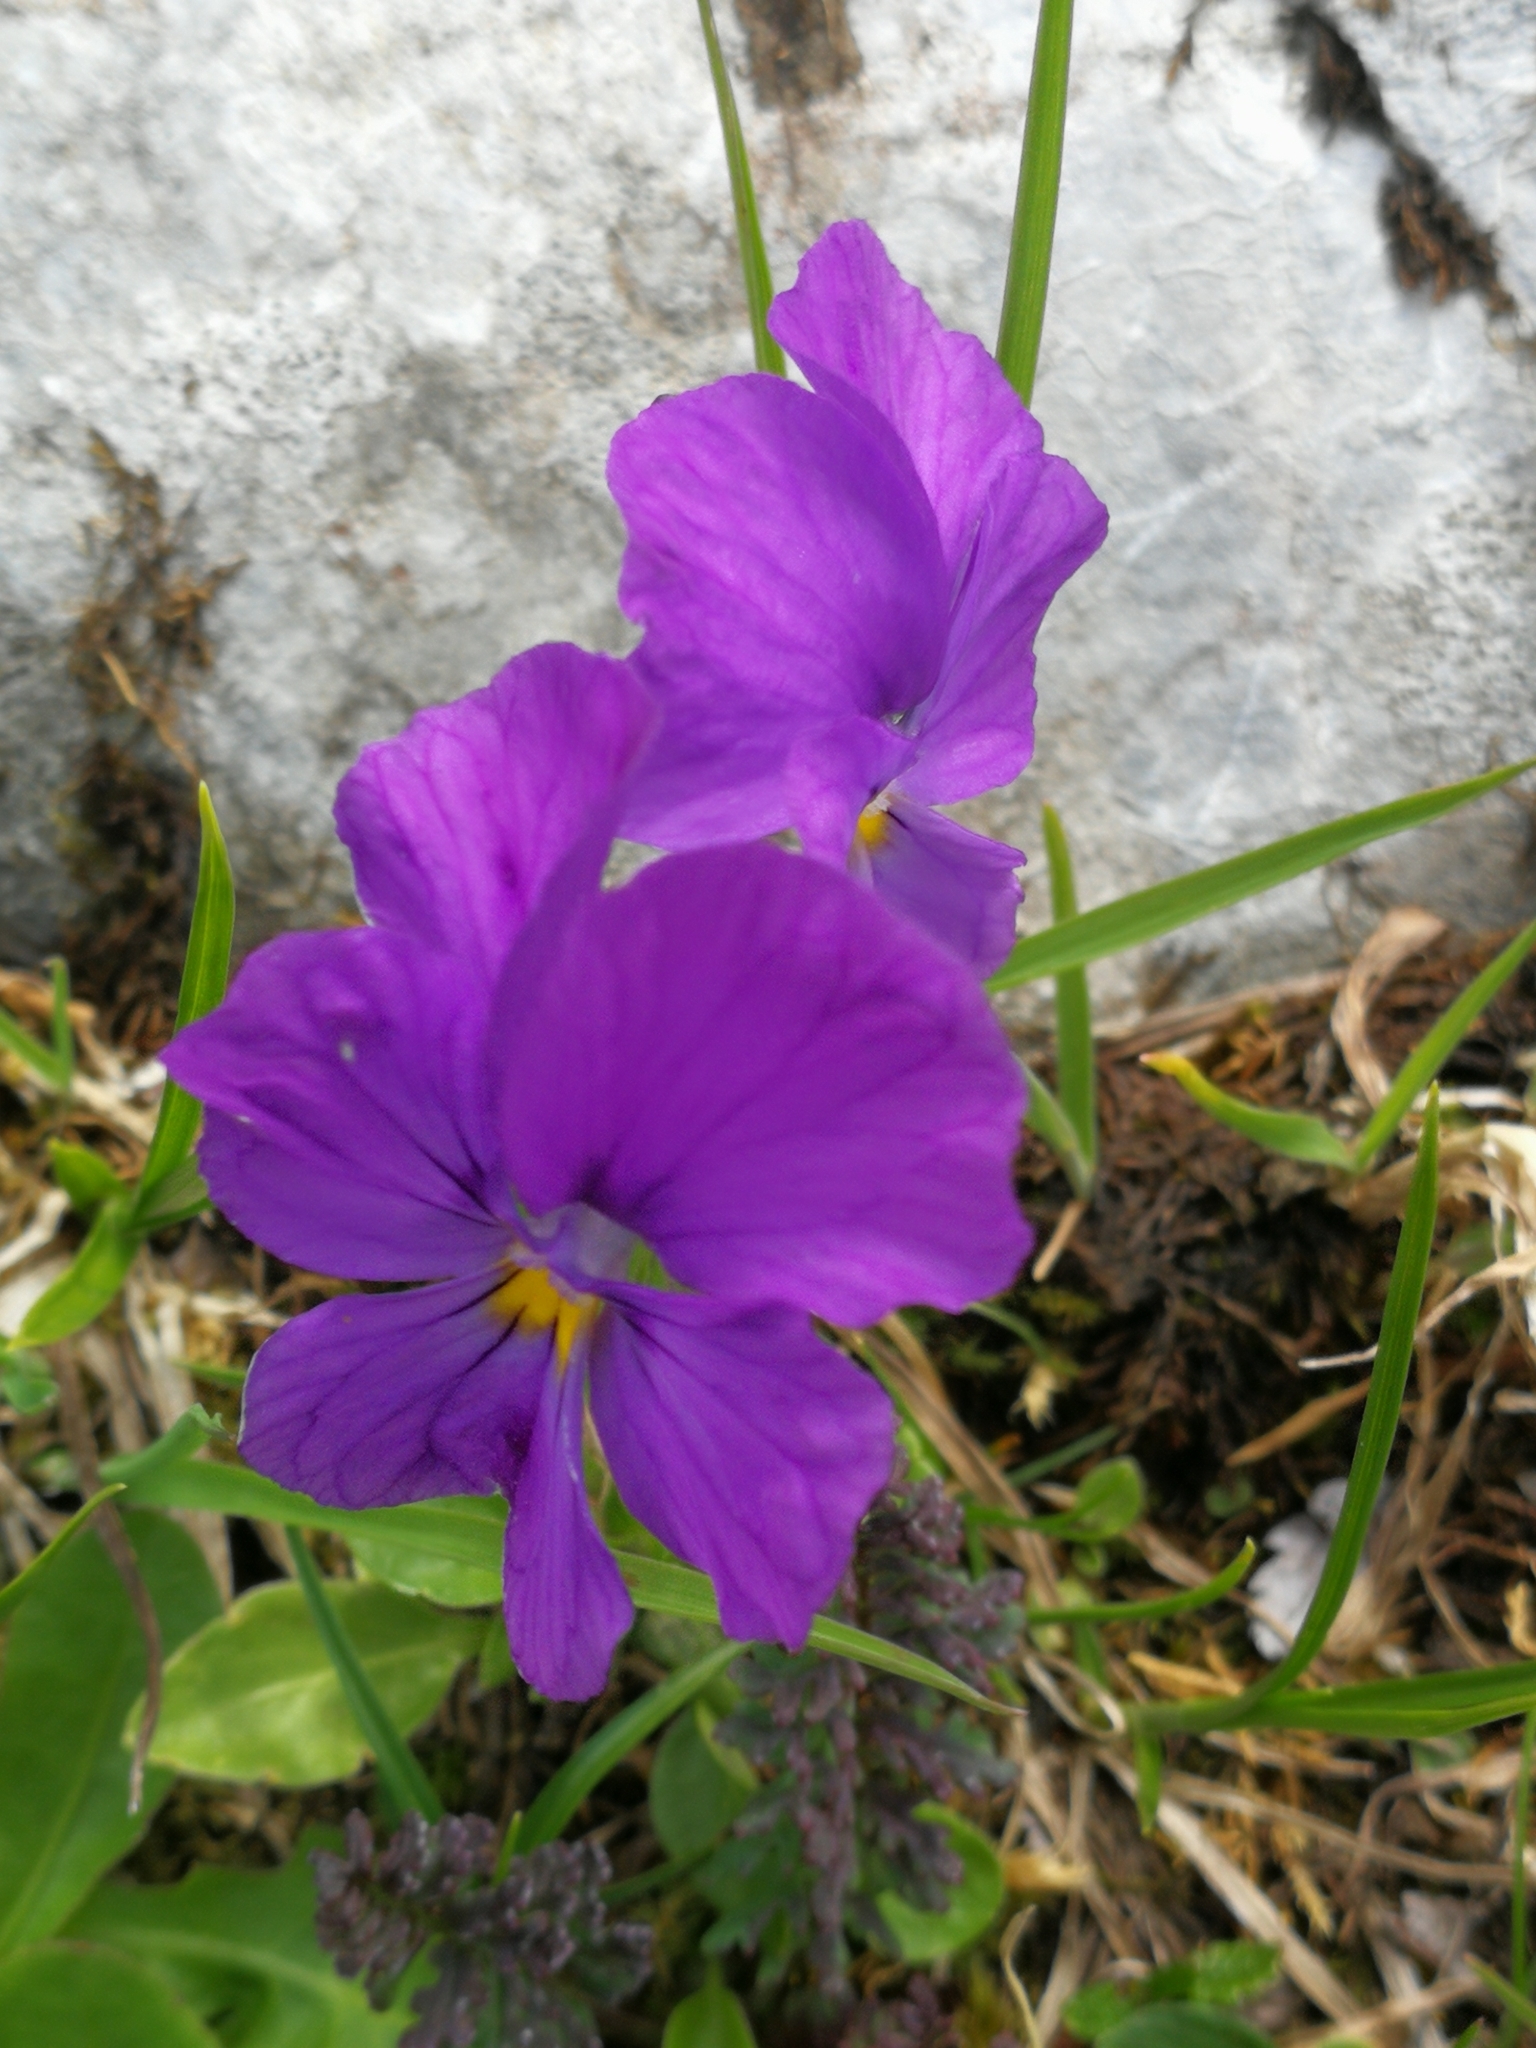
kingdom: Plantae
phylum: Tracheophyta
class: Magnoliopsida
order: Malpighiales
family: Violaceae
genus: Viola
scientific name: Viola calcarata
